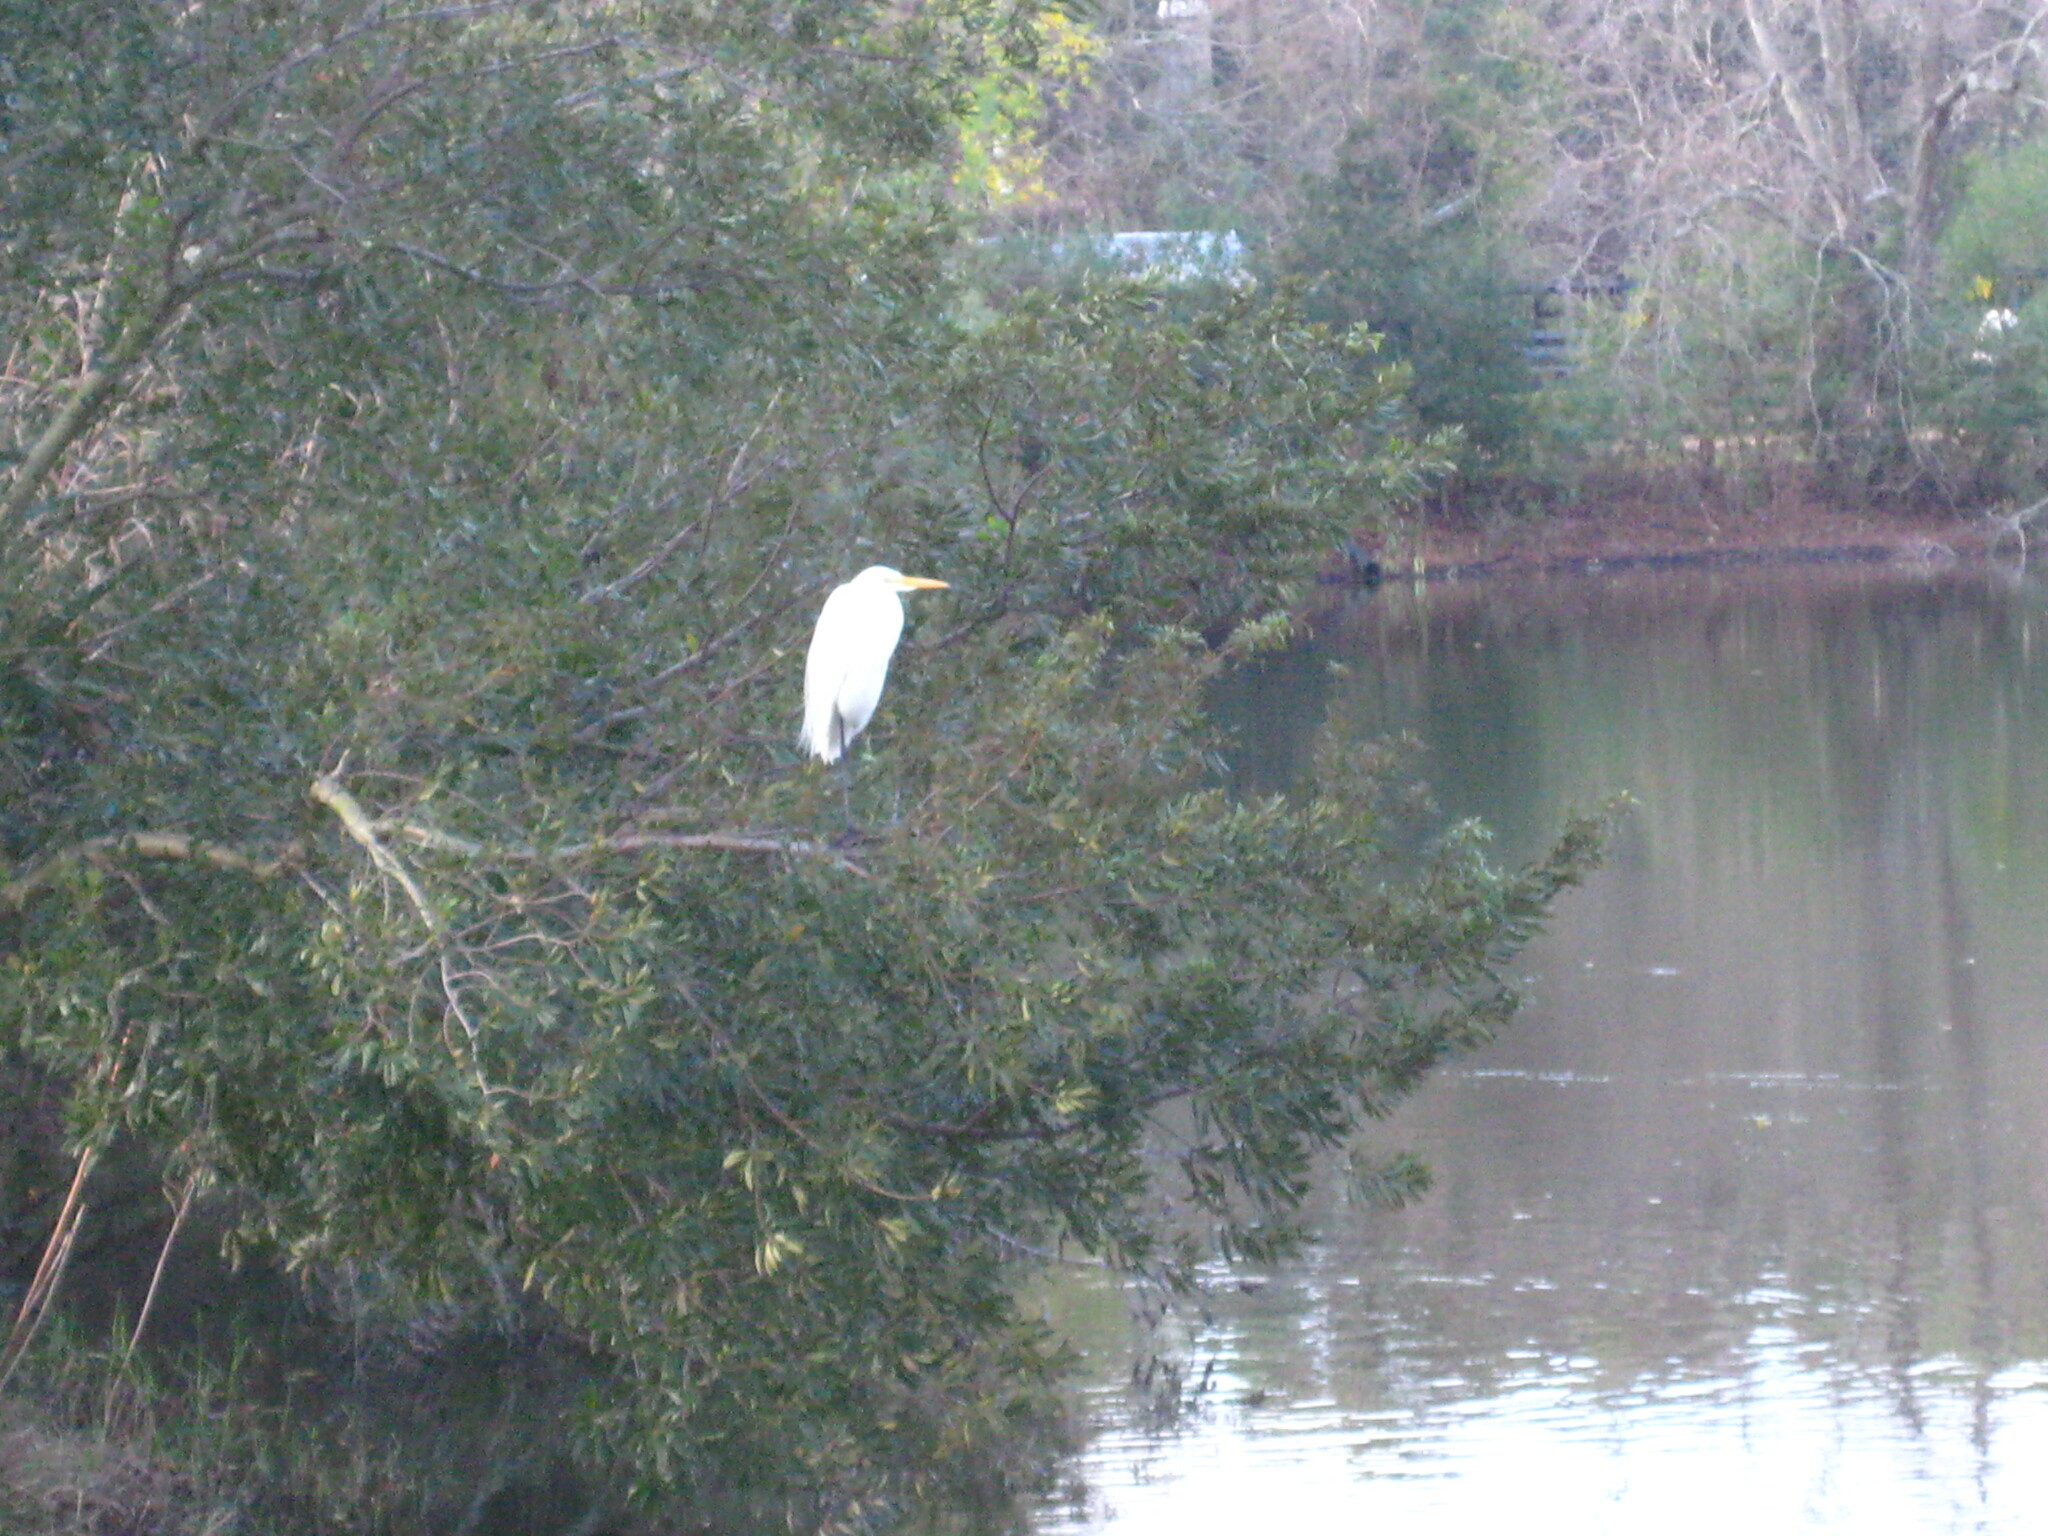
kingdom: Animalia
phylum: Chordata
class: Aves
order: Pelecaniformes
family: Ardeidae
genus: Ardea
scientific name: Ardea alba
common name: Great egret
